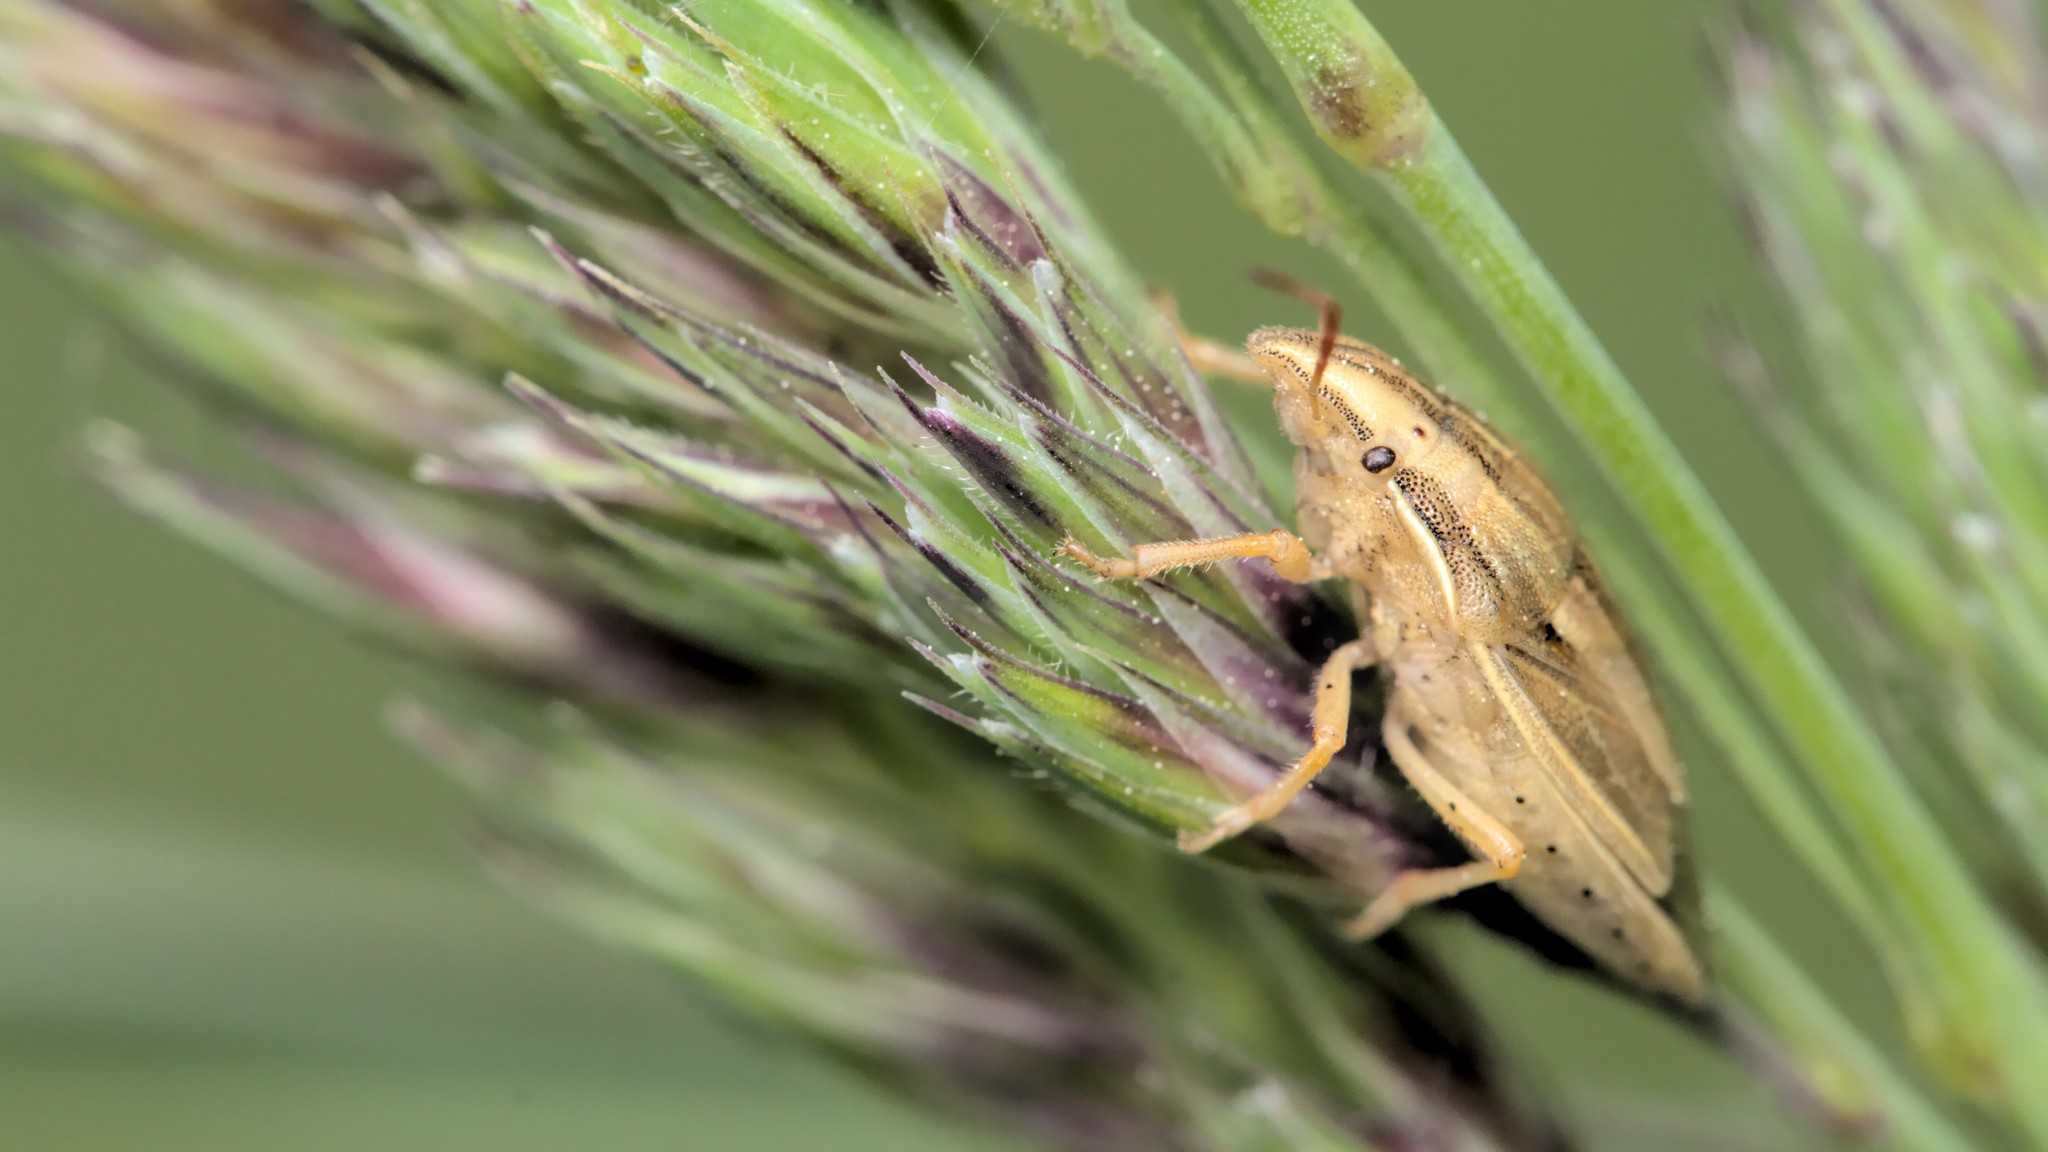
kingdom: Animalia
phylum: Arthropoda
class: Insecta
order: Hemiptera
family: Pentatomidae
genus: Aelia
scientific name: Aelia acuminata
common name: Bishop's mitre
